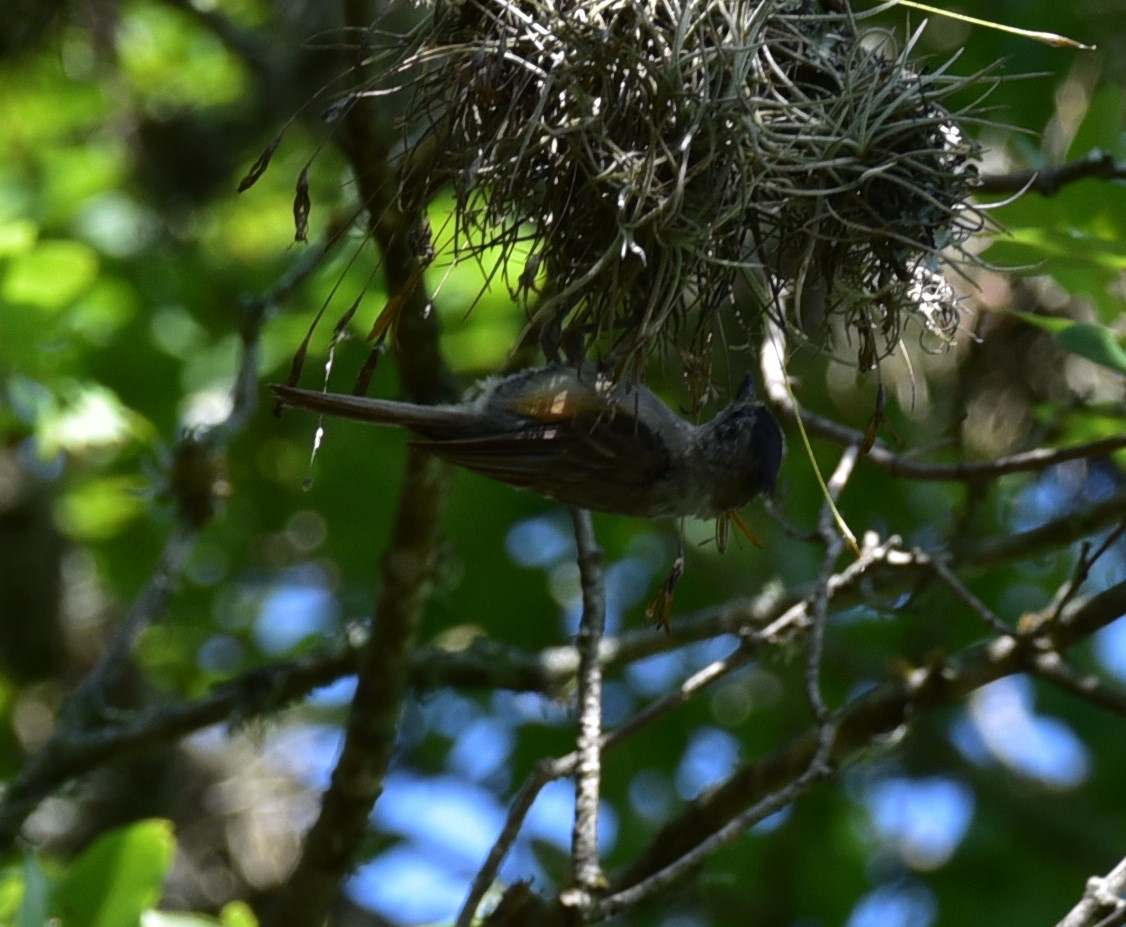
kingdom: Animalia
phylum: Chordata
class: Aves
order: Passeriformes
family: Paridae
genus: Baeolophus
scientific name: Baeolophus atricristatus
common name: Black-crested titmouse
